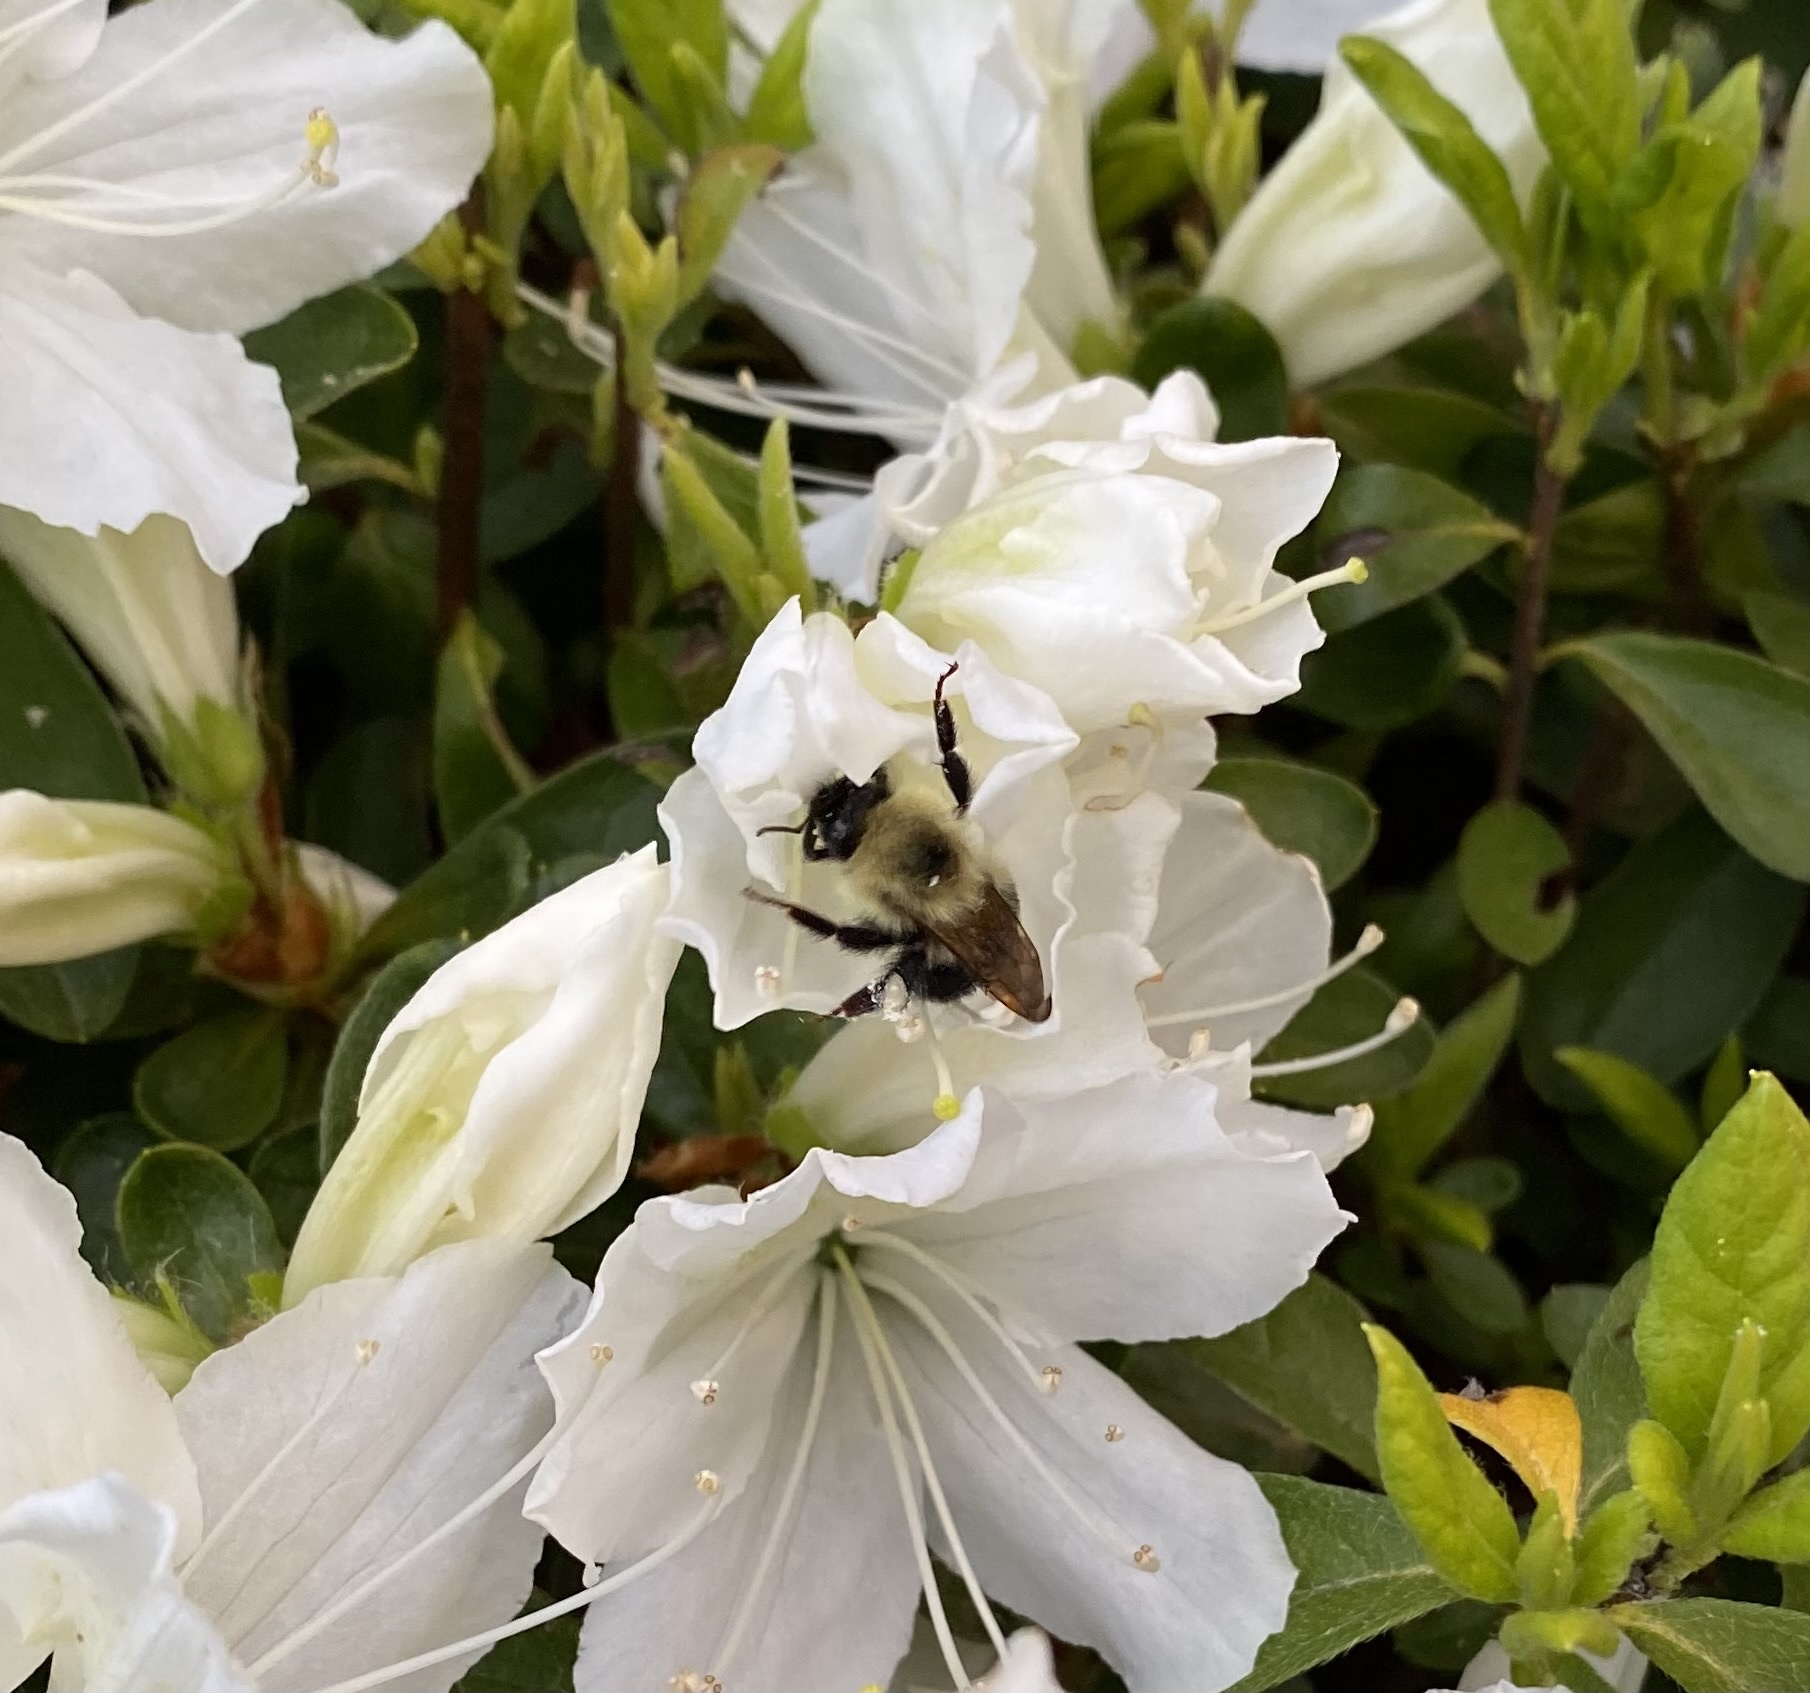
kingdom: Animalia
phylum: Arthropoda
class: Insecta
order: Hymenoptera
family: Apidae
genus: Bombus
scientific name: Bombus bimaculatus
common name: Two-spotted bumble bee
